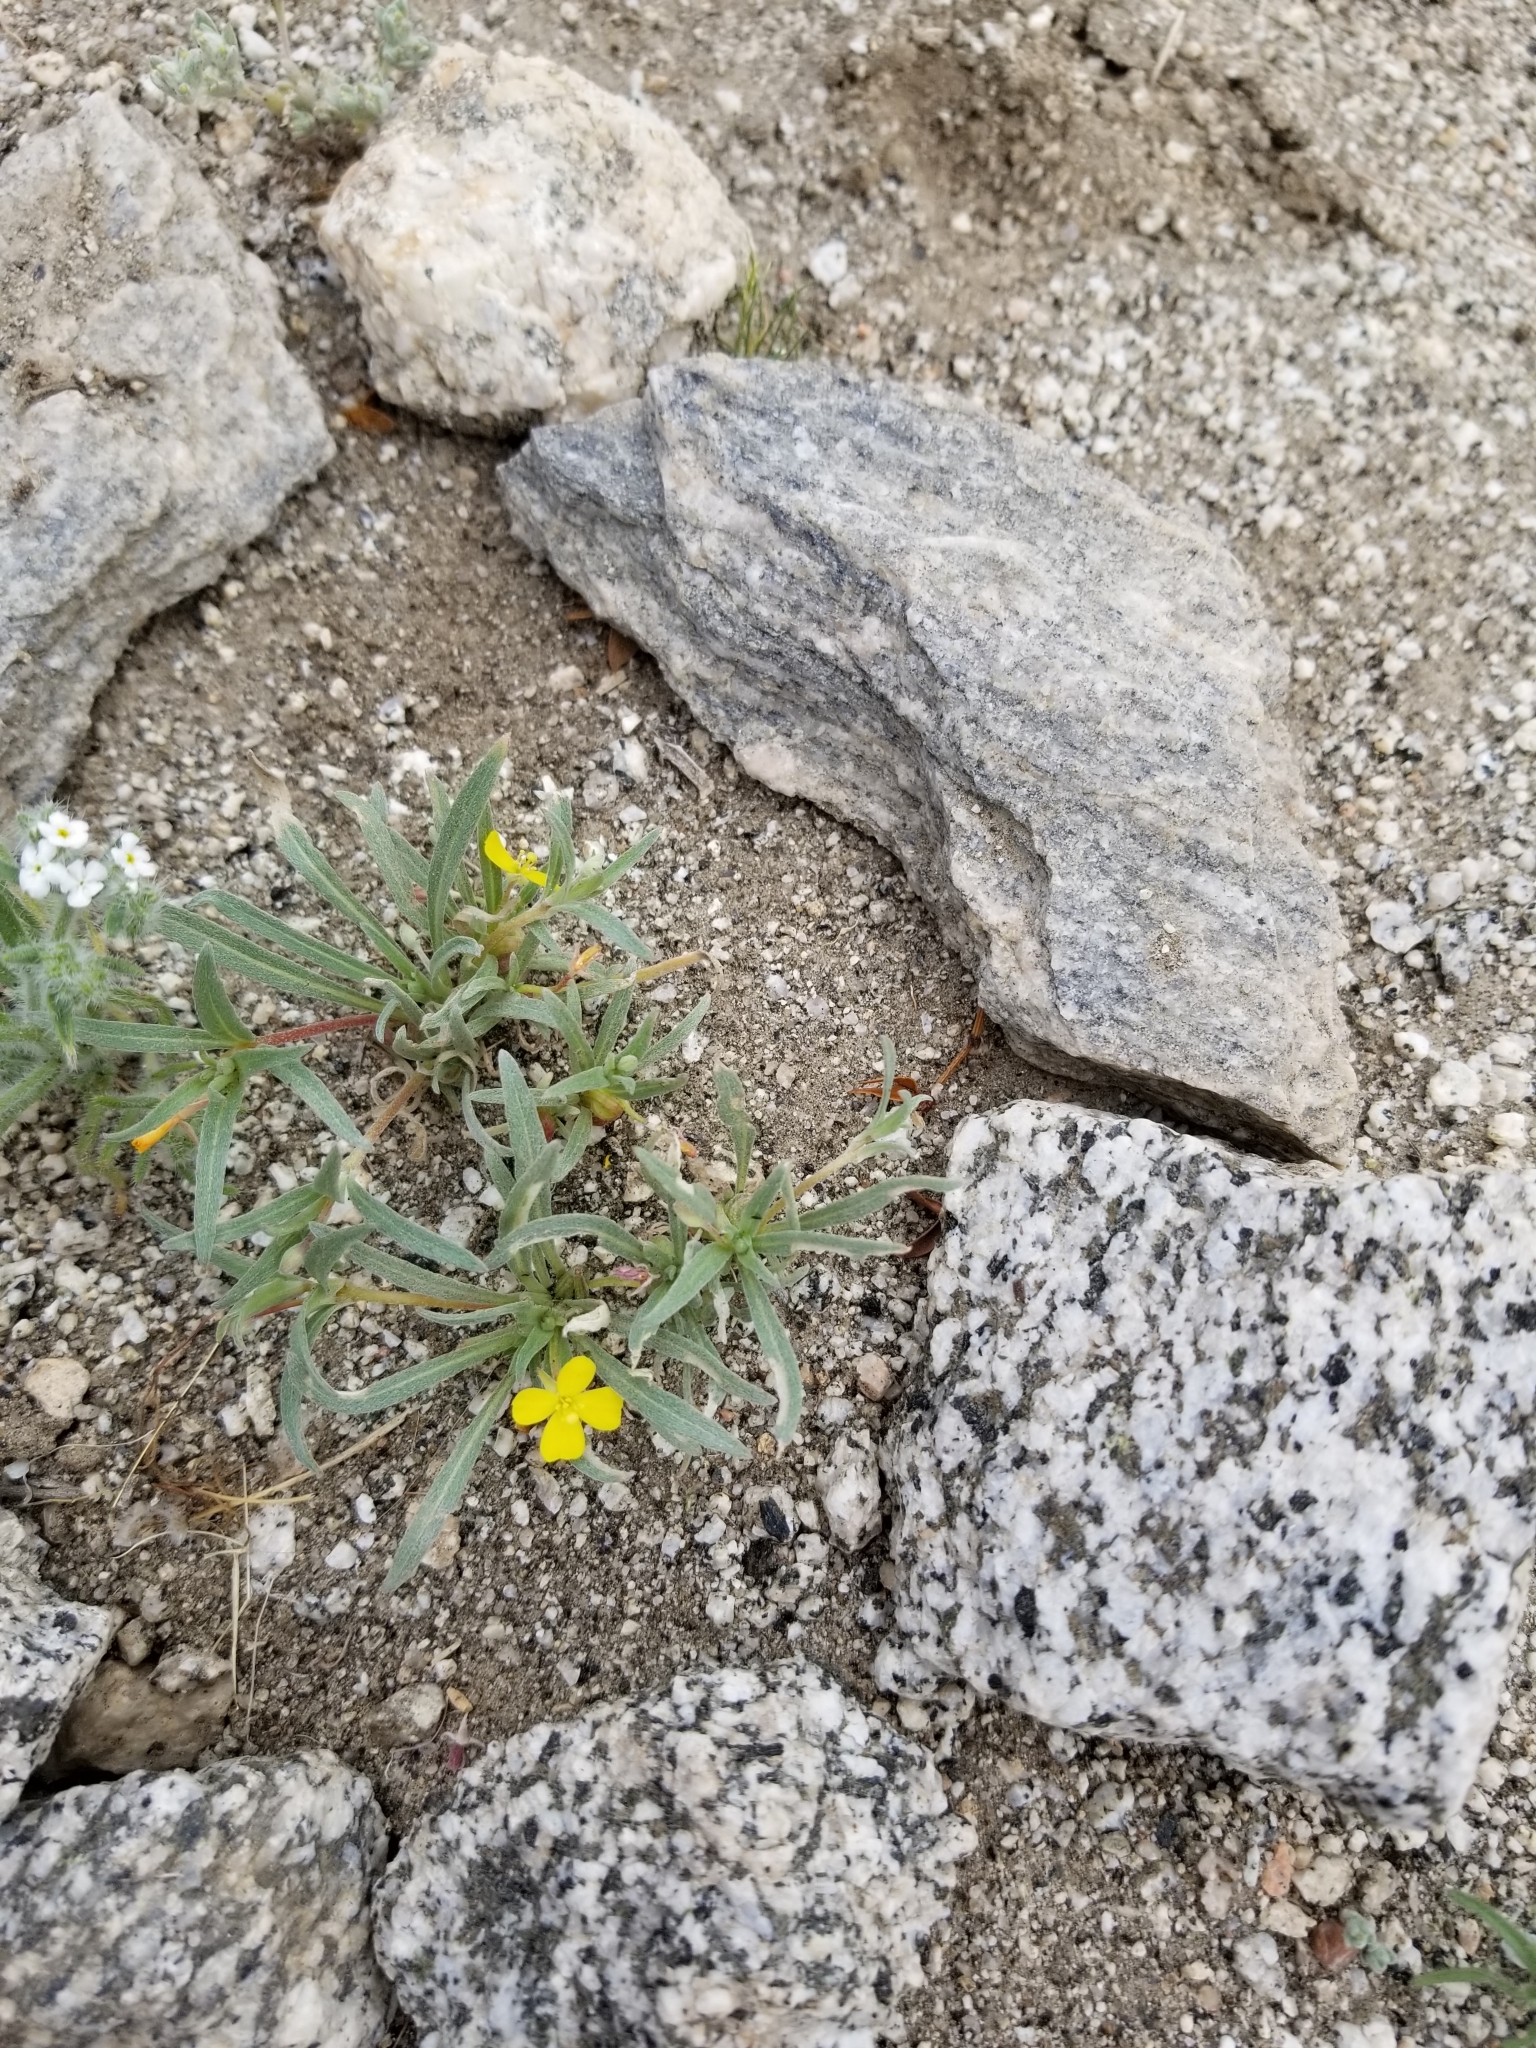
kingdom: Plantae
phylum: Tracheophyta
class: Magnoliopsida
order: Myrtales
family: Onagraceae
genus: Camissoniopsis
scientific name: Camissoniopsis pallida
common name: Paleyellow suncup
